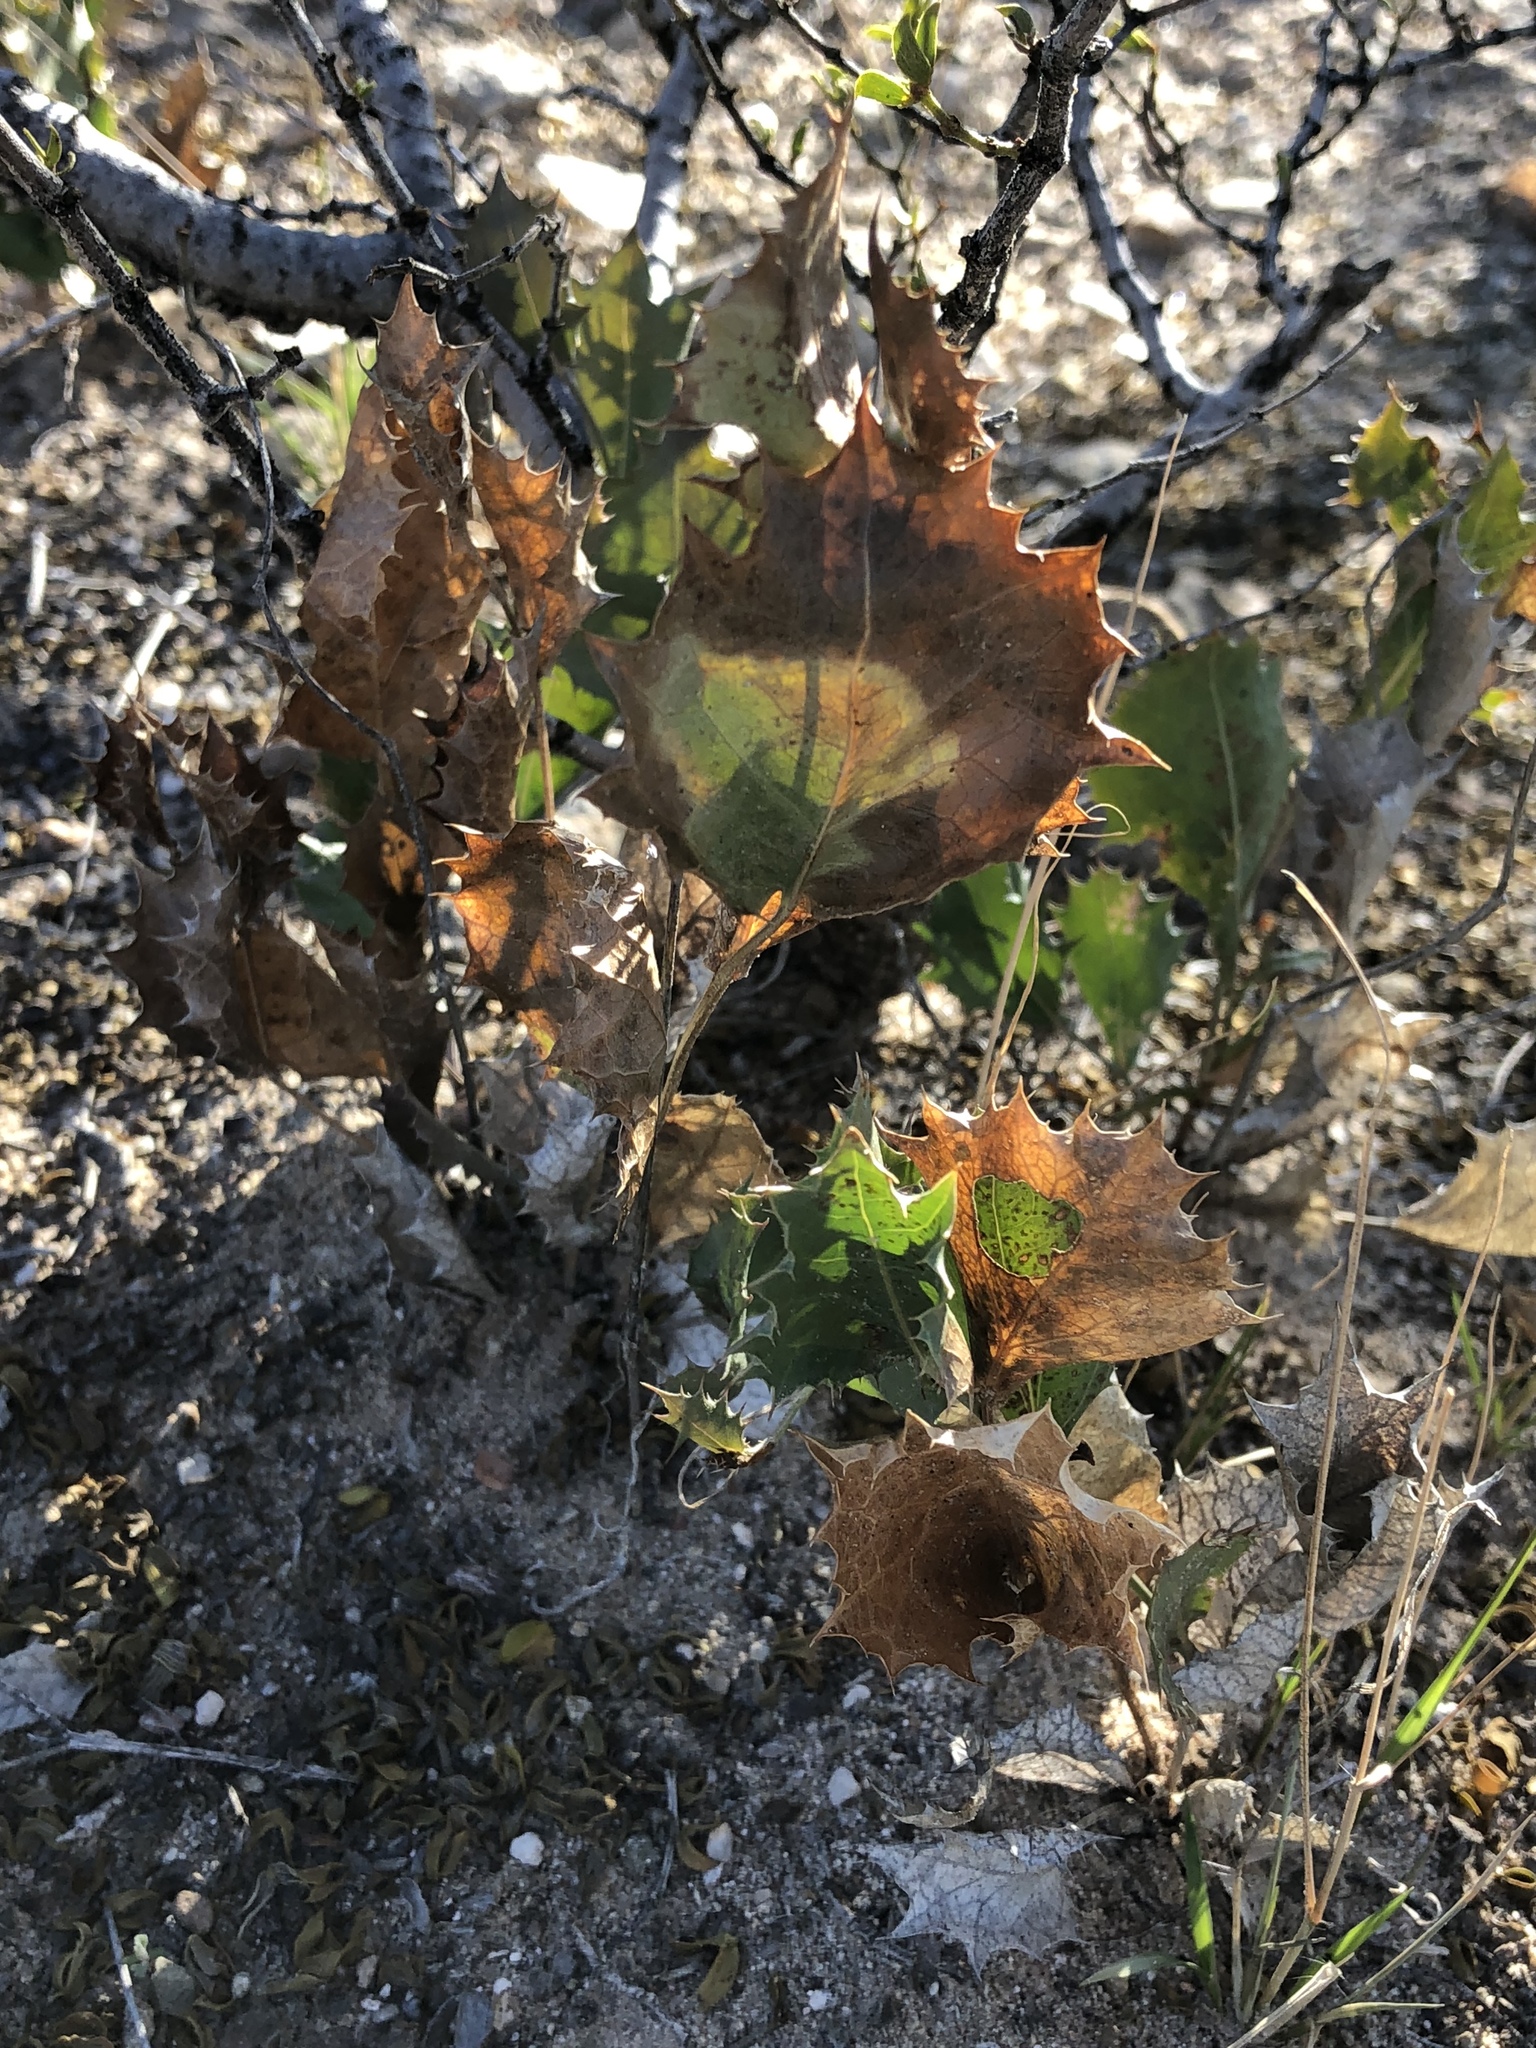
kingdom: Plantae
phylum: Tracheophyta
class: Magnoliopsida
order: Asterales
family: Asteraceae
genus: Acourtia
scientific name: Acourtia nana
